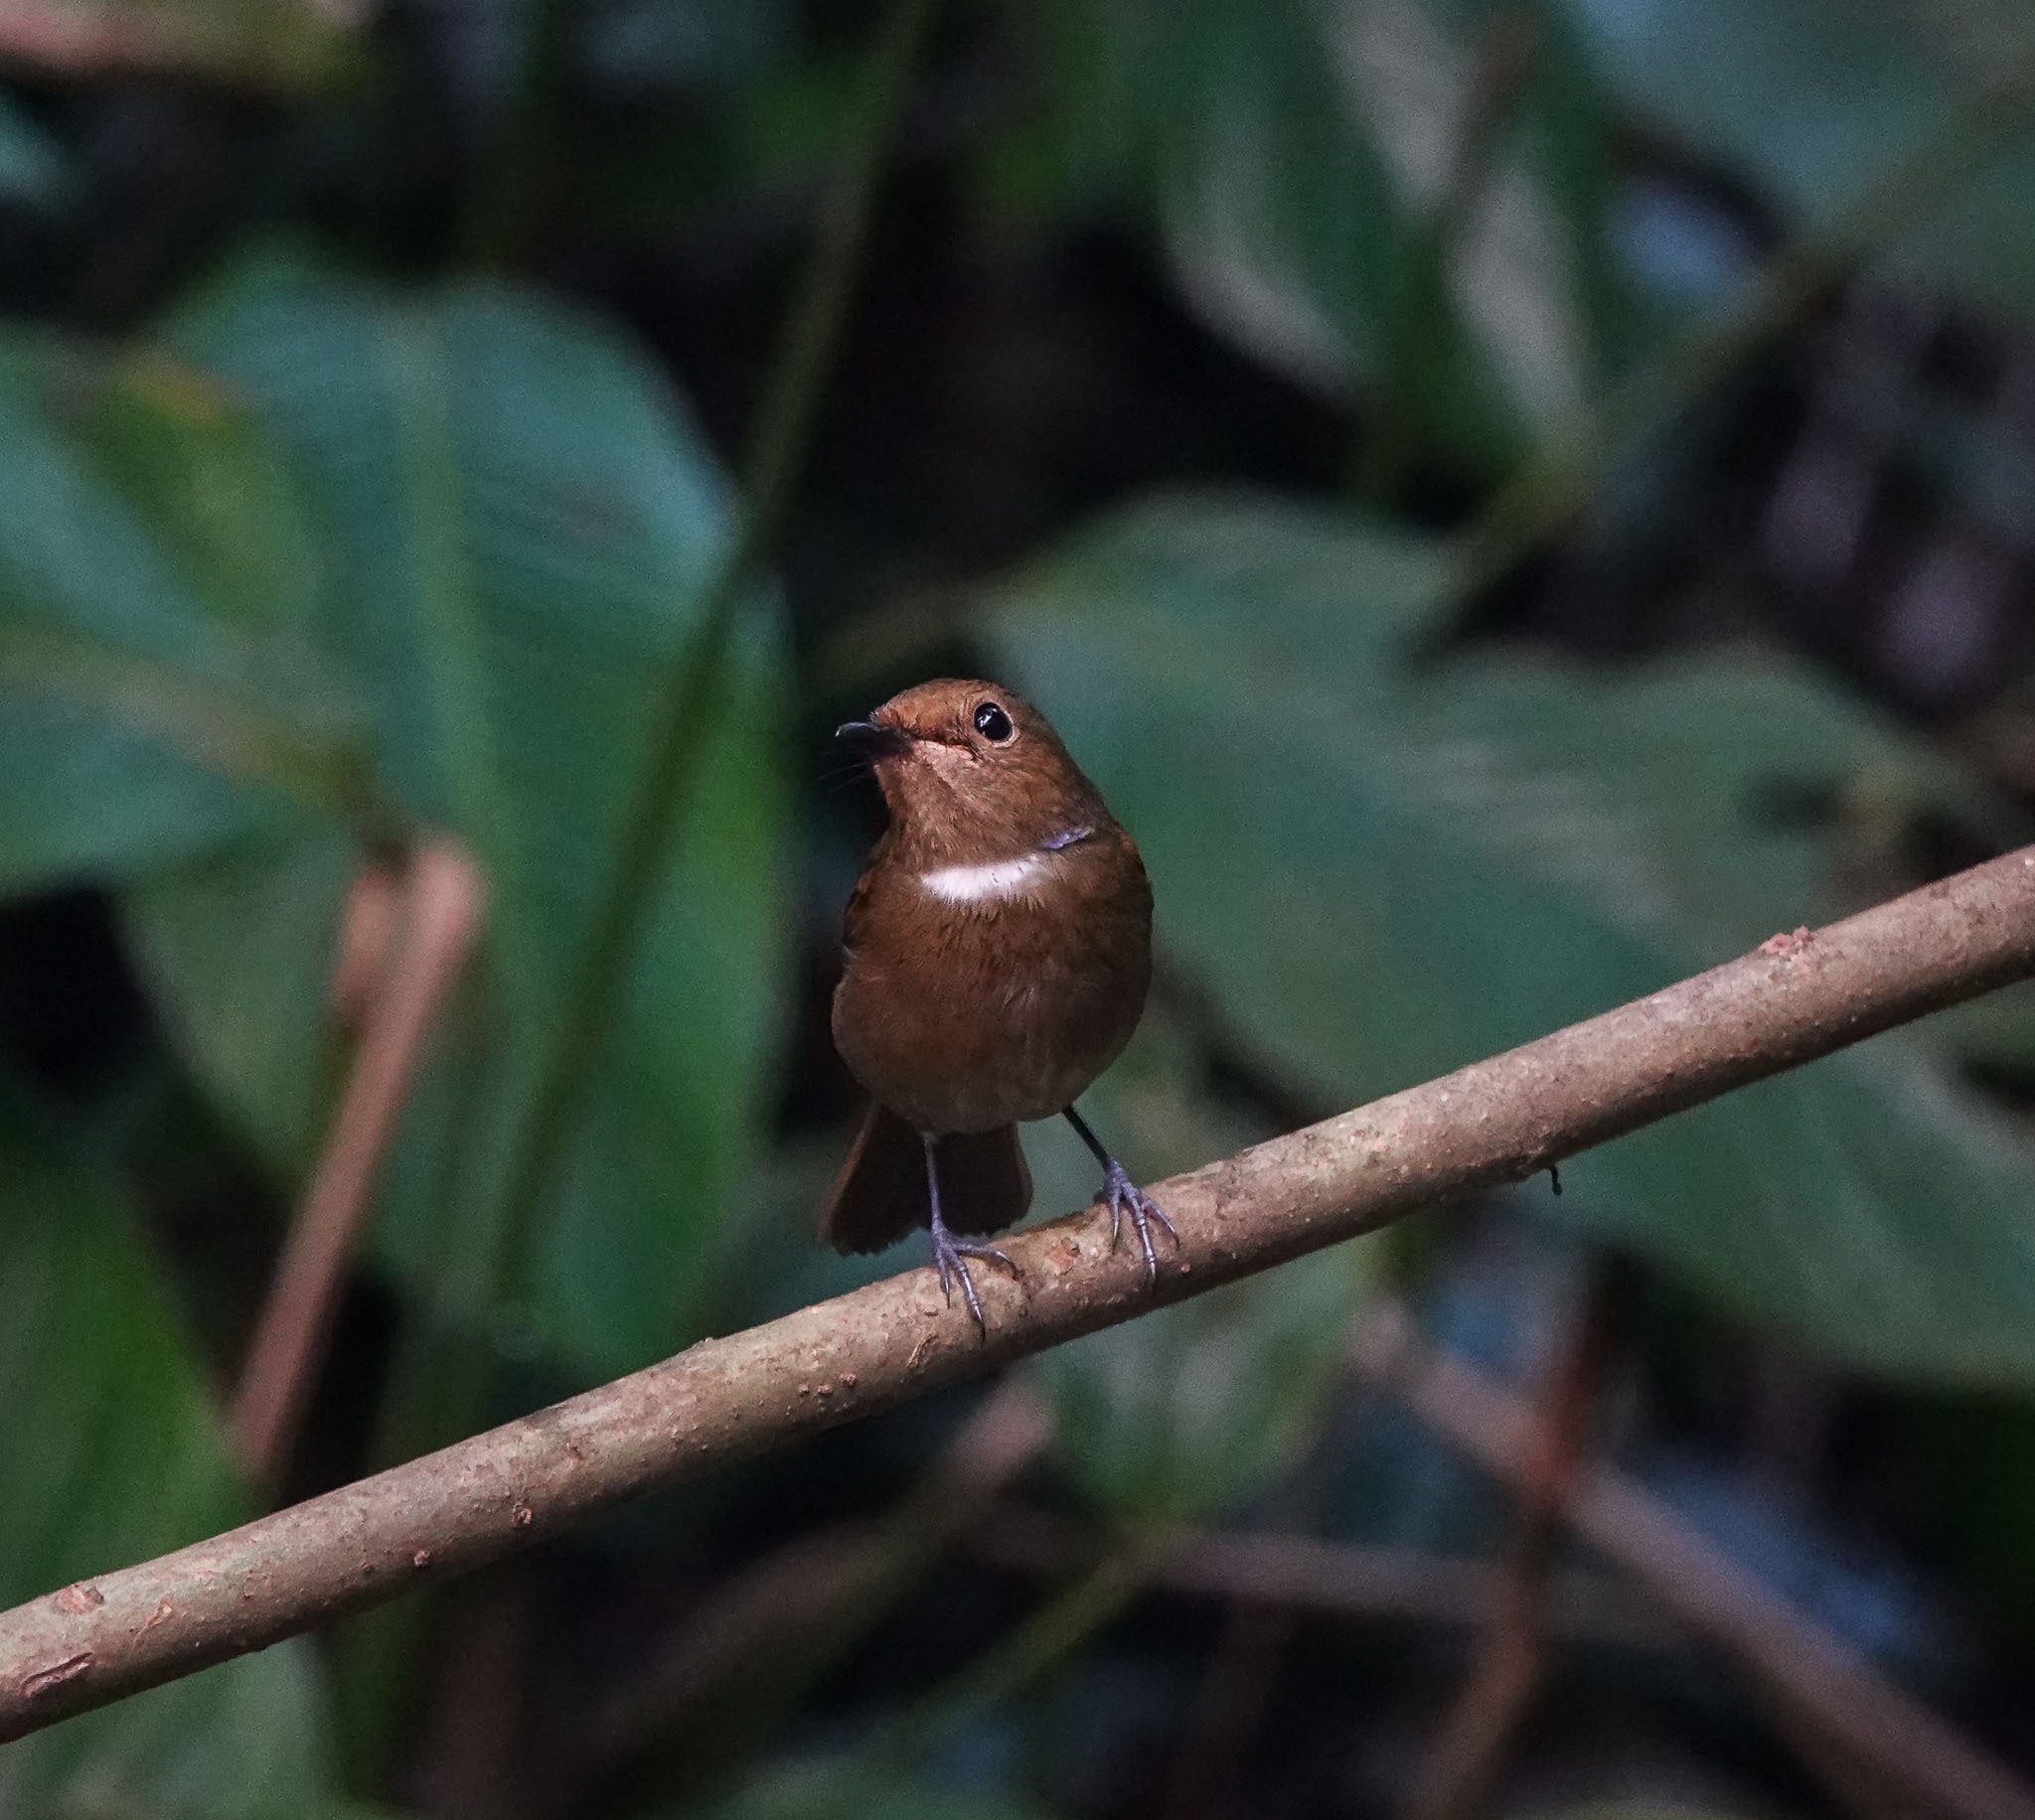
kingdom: Animalia
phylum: Chordata
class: Aves
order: Passeriformes
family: Muscicapidae
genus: Niltava
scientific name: Niltava sundara
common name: Rufous-bellied niltava
